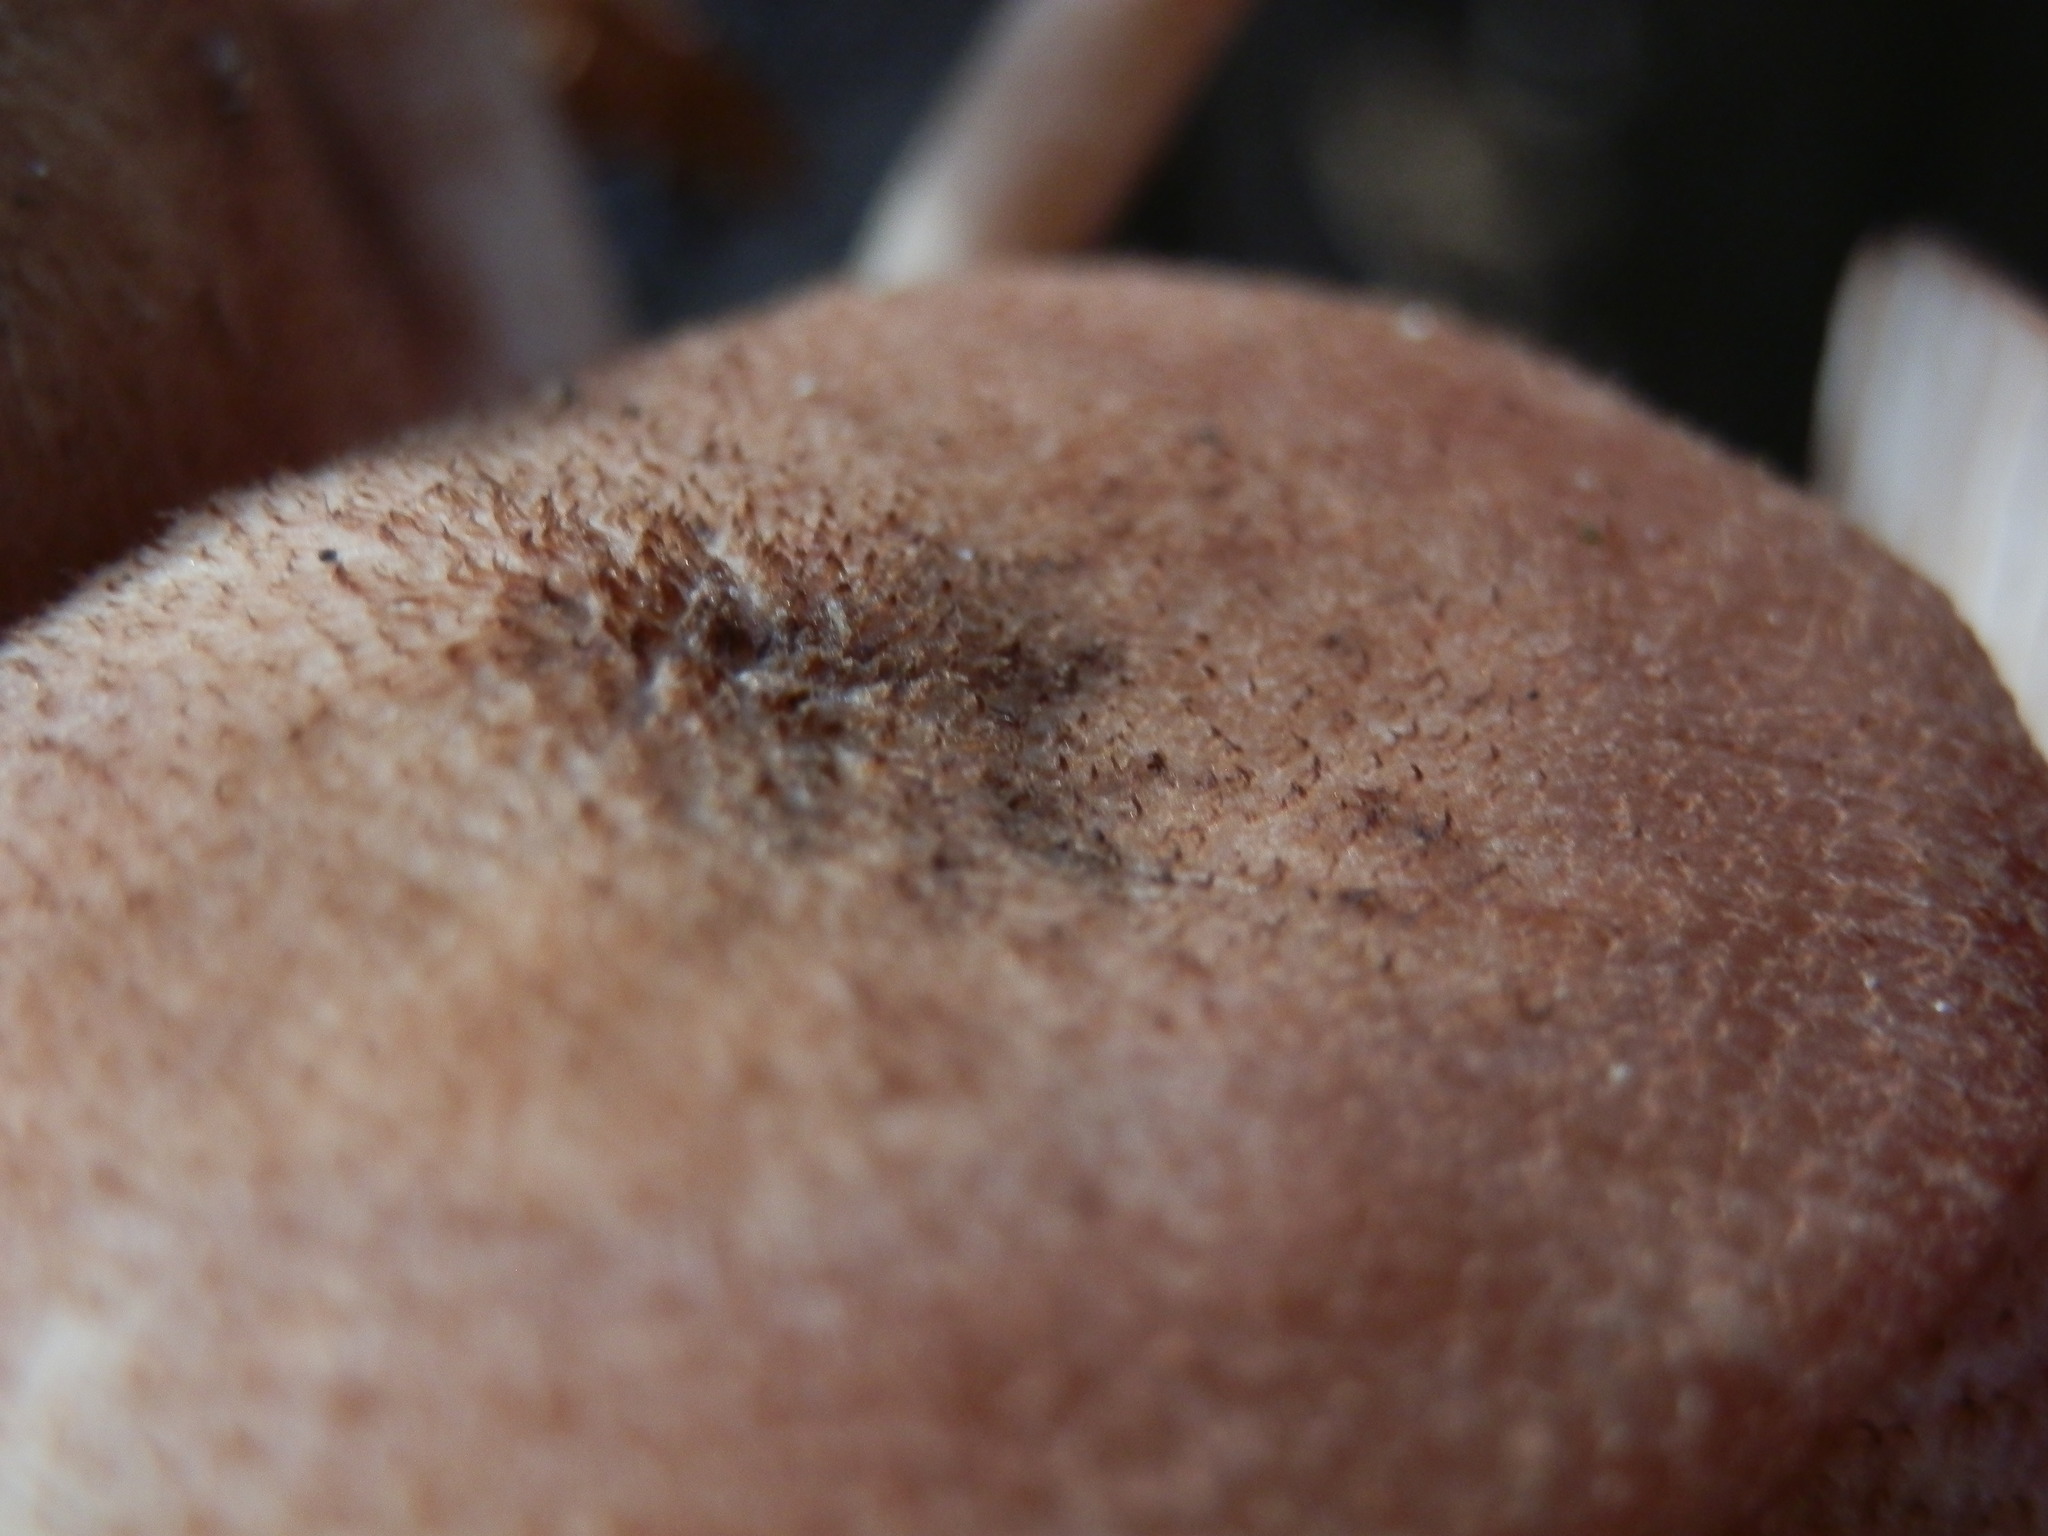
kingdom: Fungi
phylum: Basidiomycota
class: Agaricomycetes
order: Agaricales
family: Physalacriaceae
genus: Desarmillaria
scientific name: Desarmillaria caespitosa
